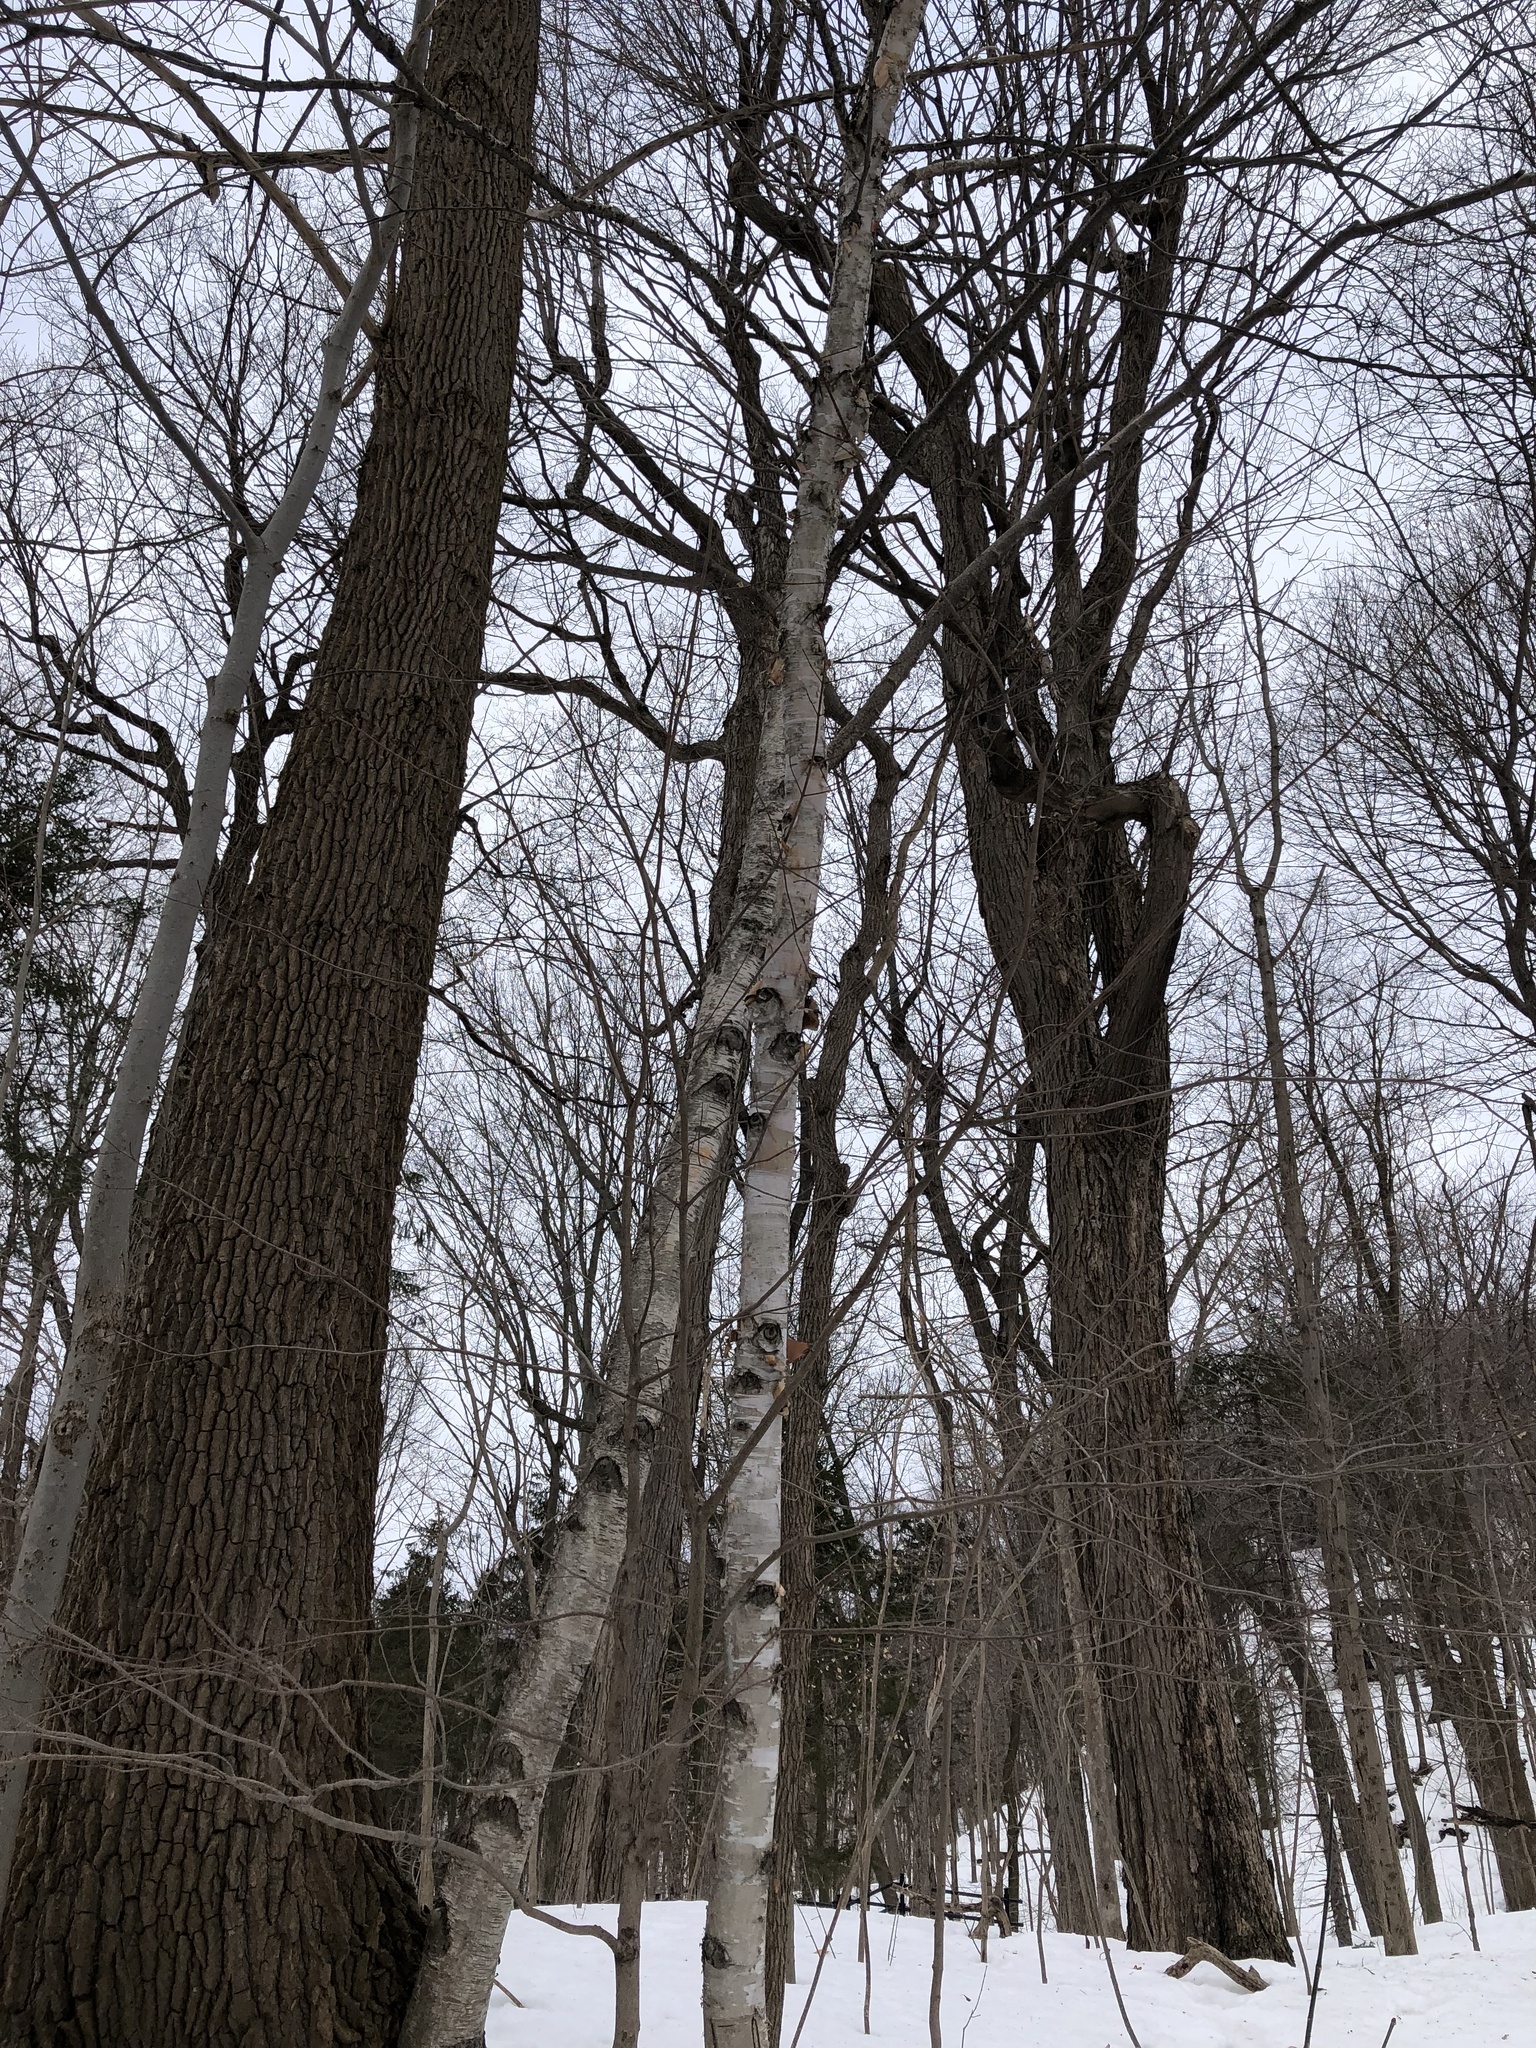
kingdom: Plantae
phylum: Tracheophyta
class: Magnoliopsida
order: Fagales
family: Betulaceae
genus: Betula
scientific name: Betula papyrifera
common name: Paper birch
